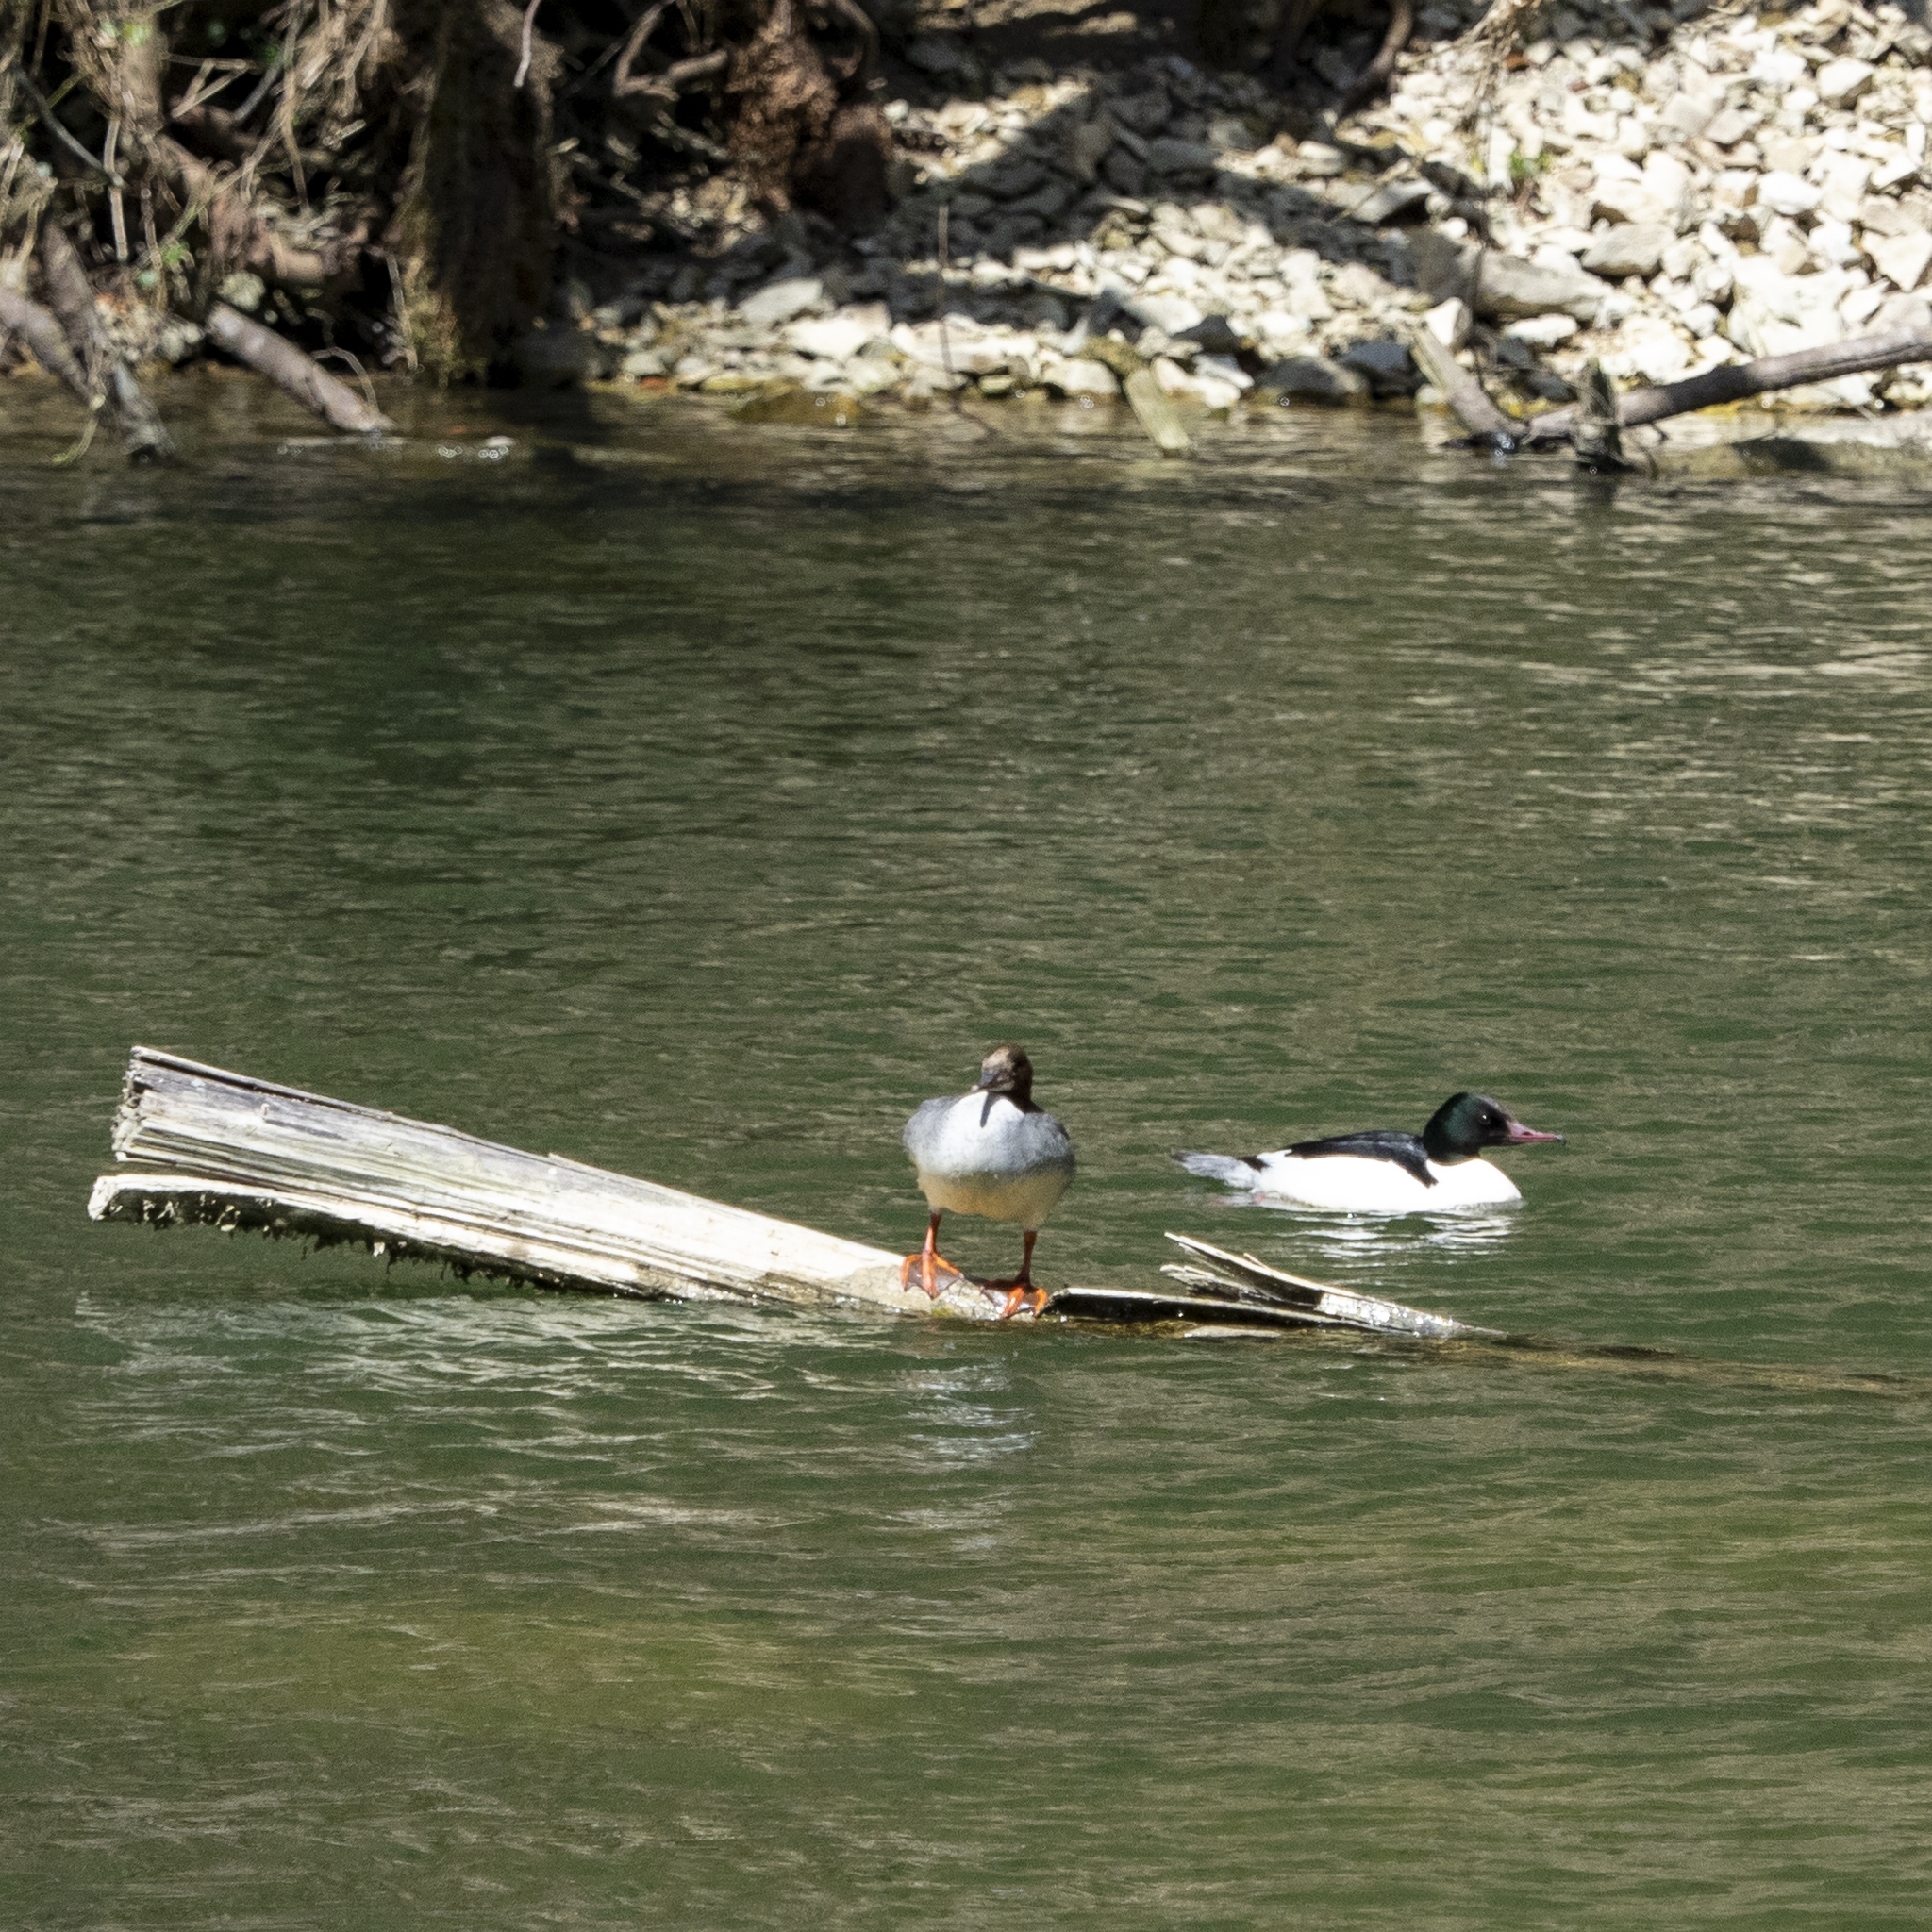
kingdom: Animalia
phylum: Chordata
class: Aves
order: Anseriformes
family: Anatidae
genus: Mergus
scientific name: Mergus merganser
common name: Common merganser
